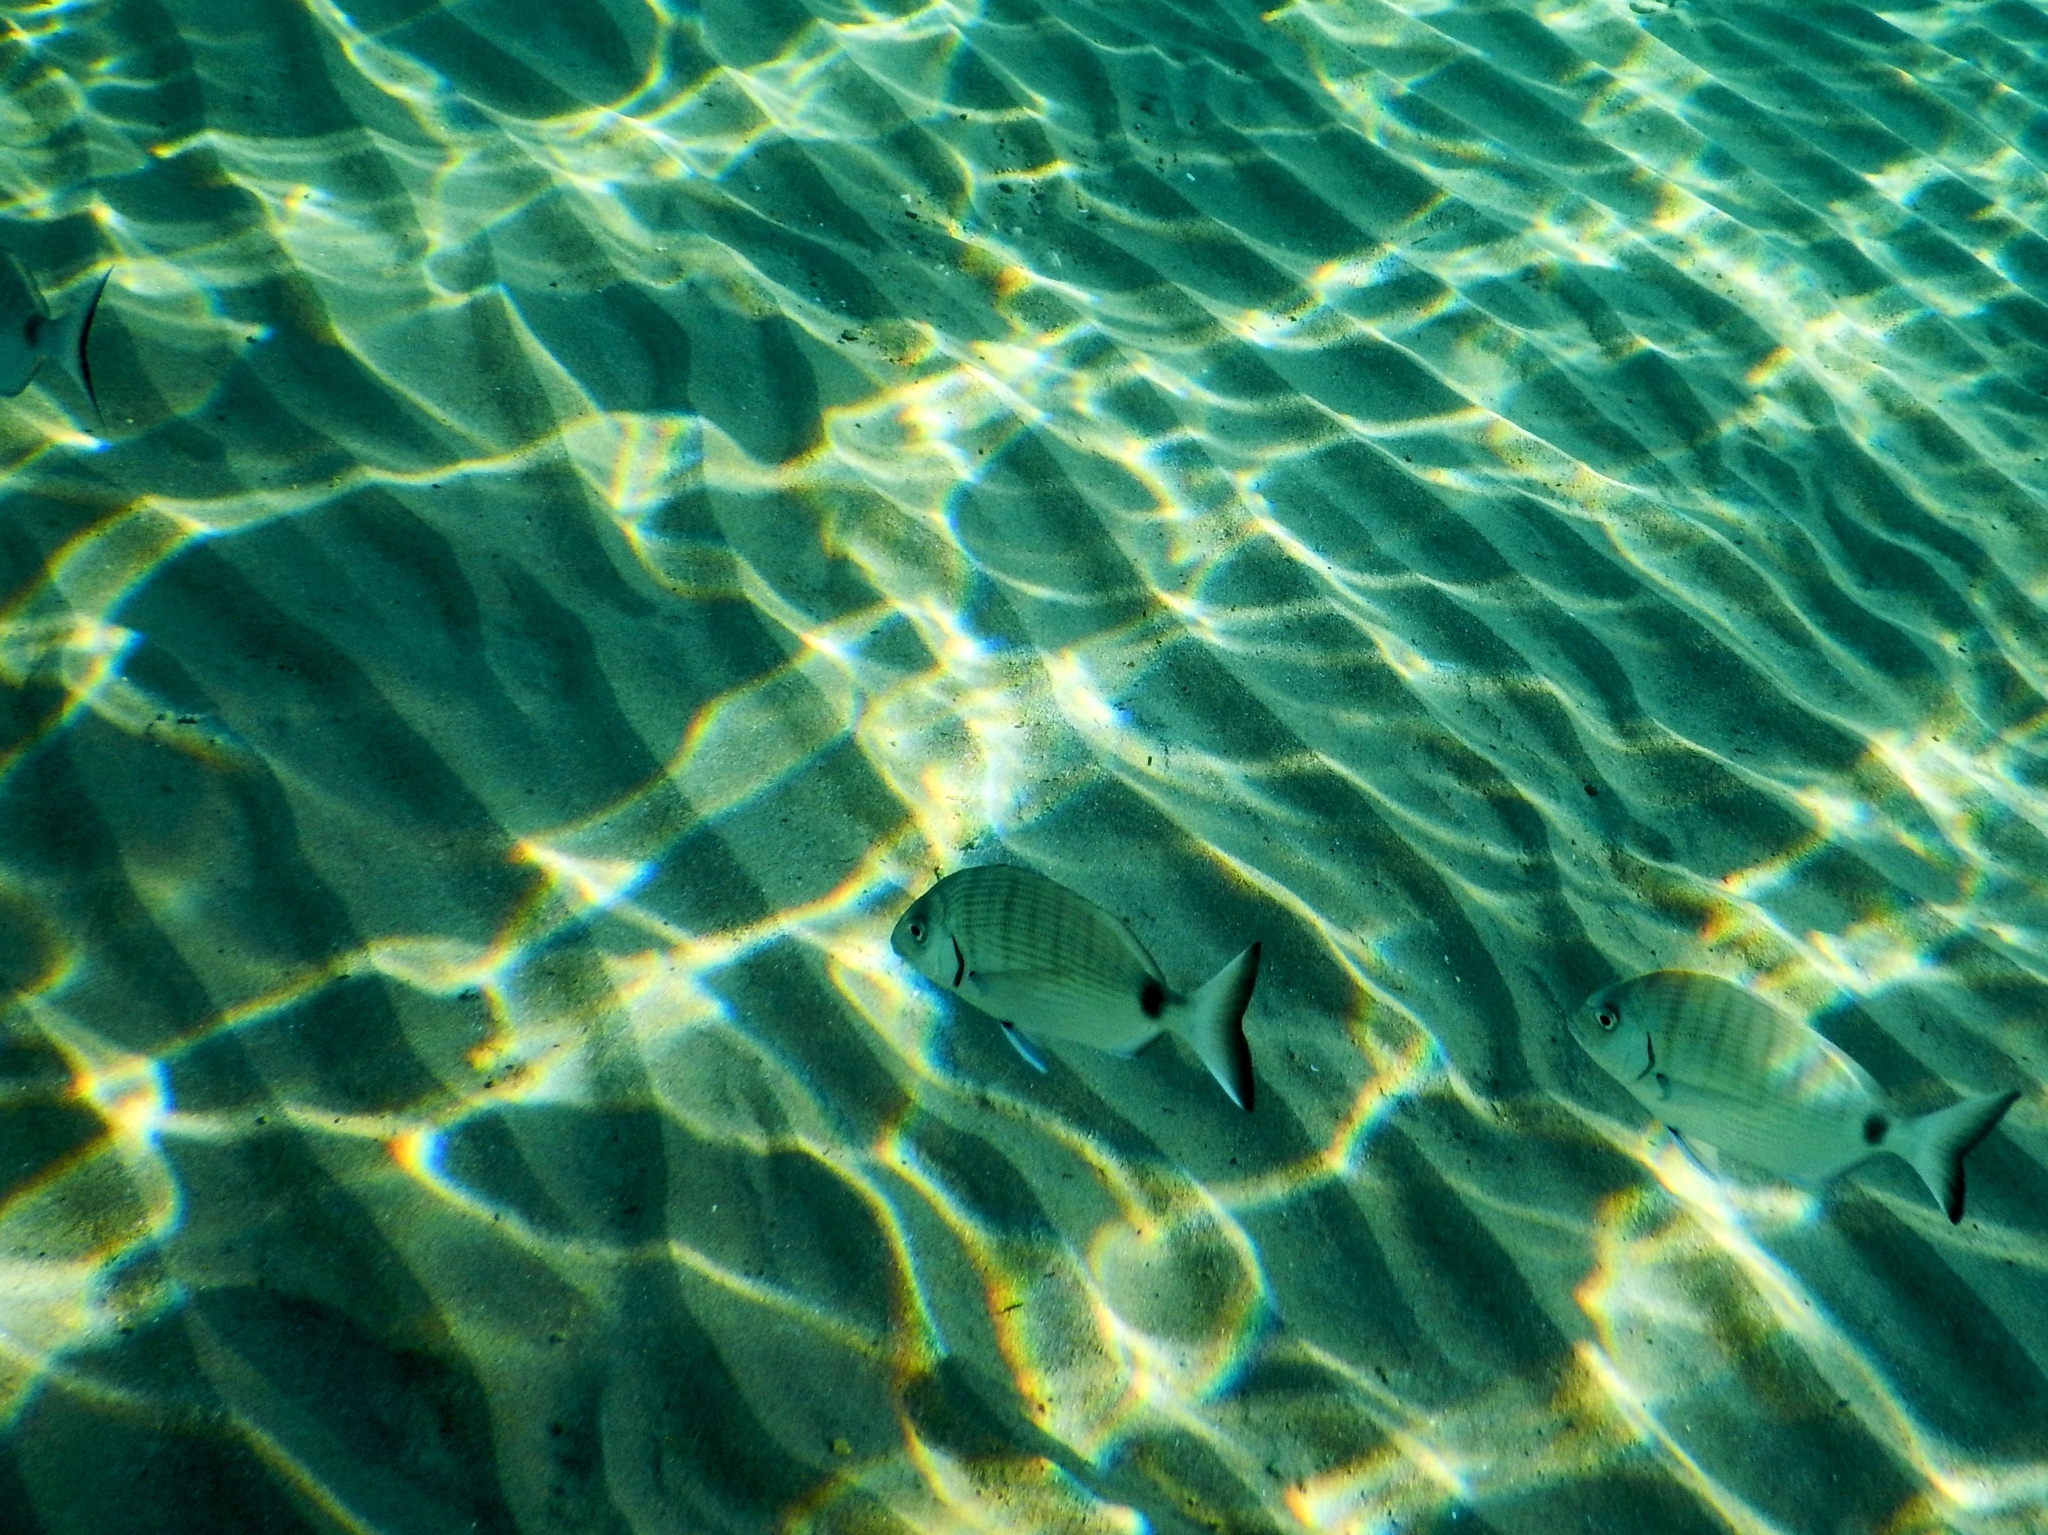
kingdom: Animalia
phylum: Chordata
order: Perciformes
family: Sparidae
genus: Diplodus
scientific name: Diplodus sargus
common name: White seabream
